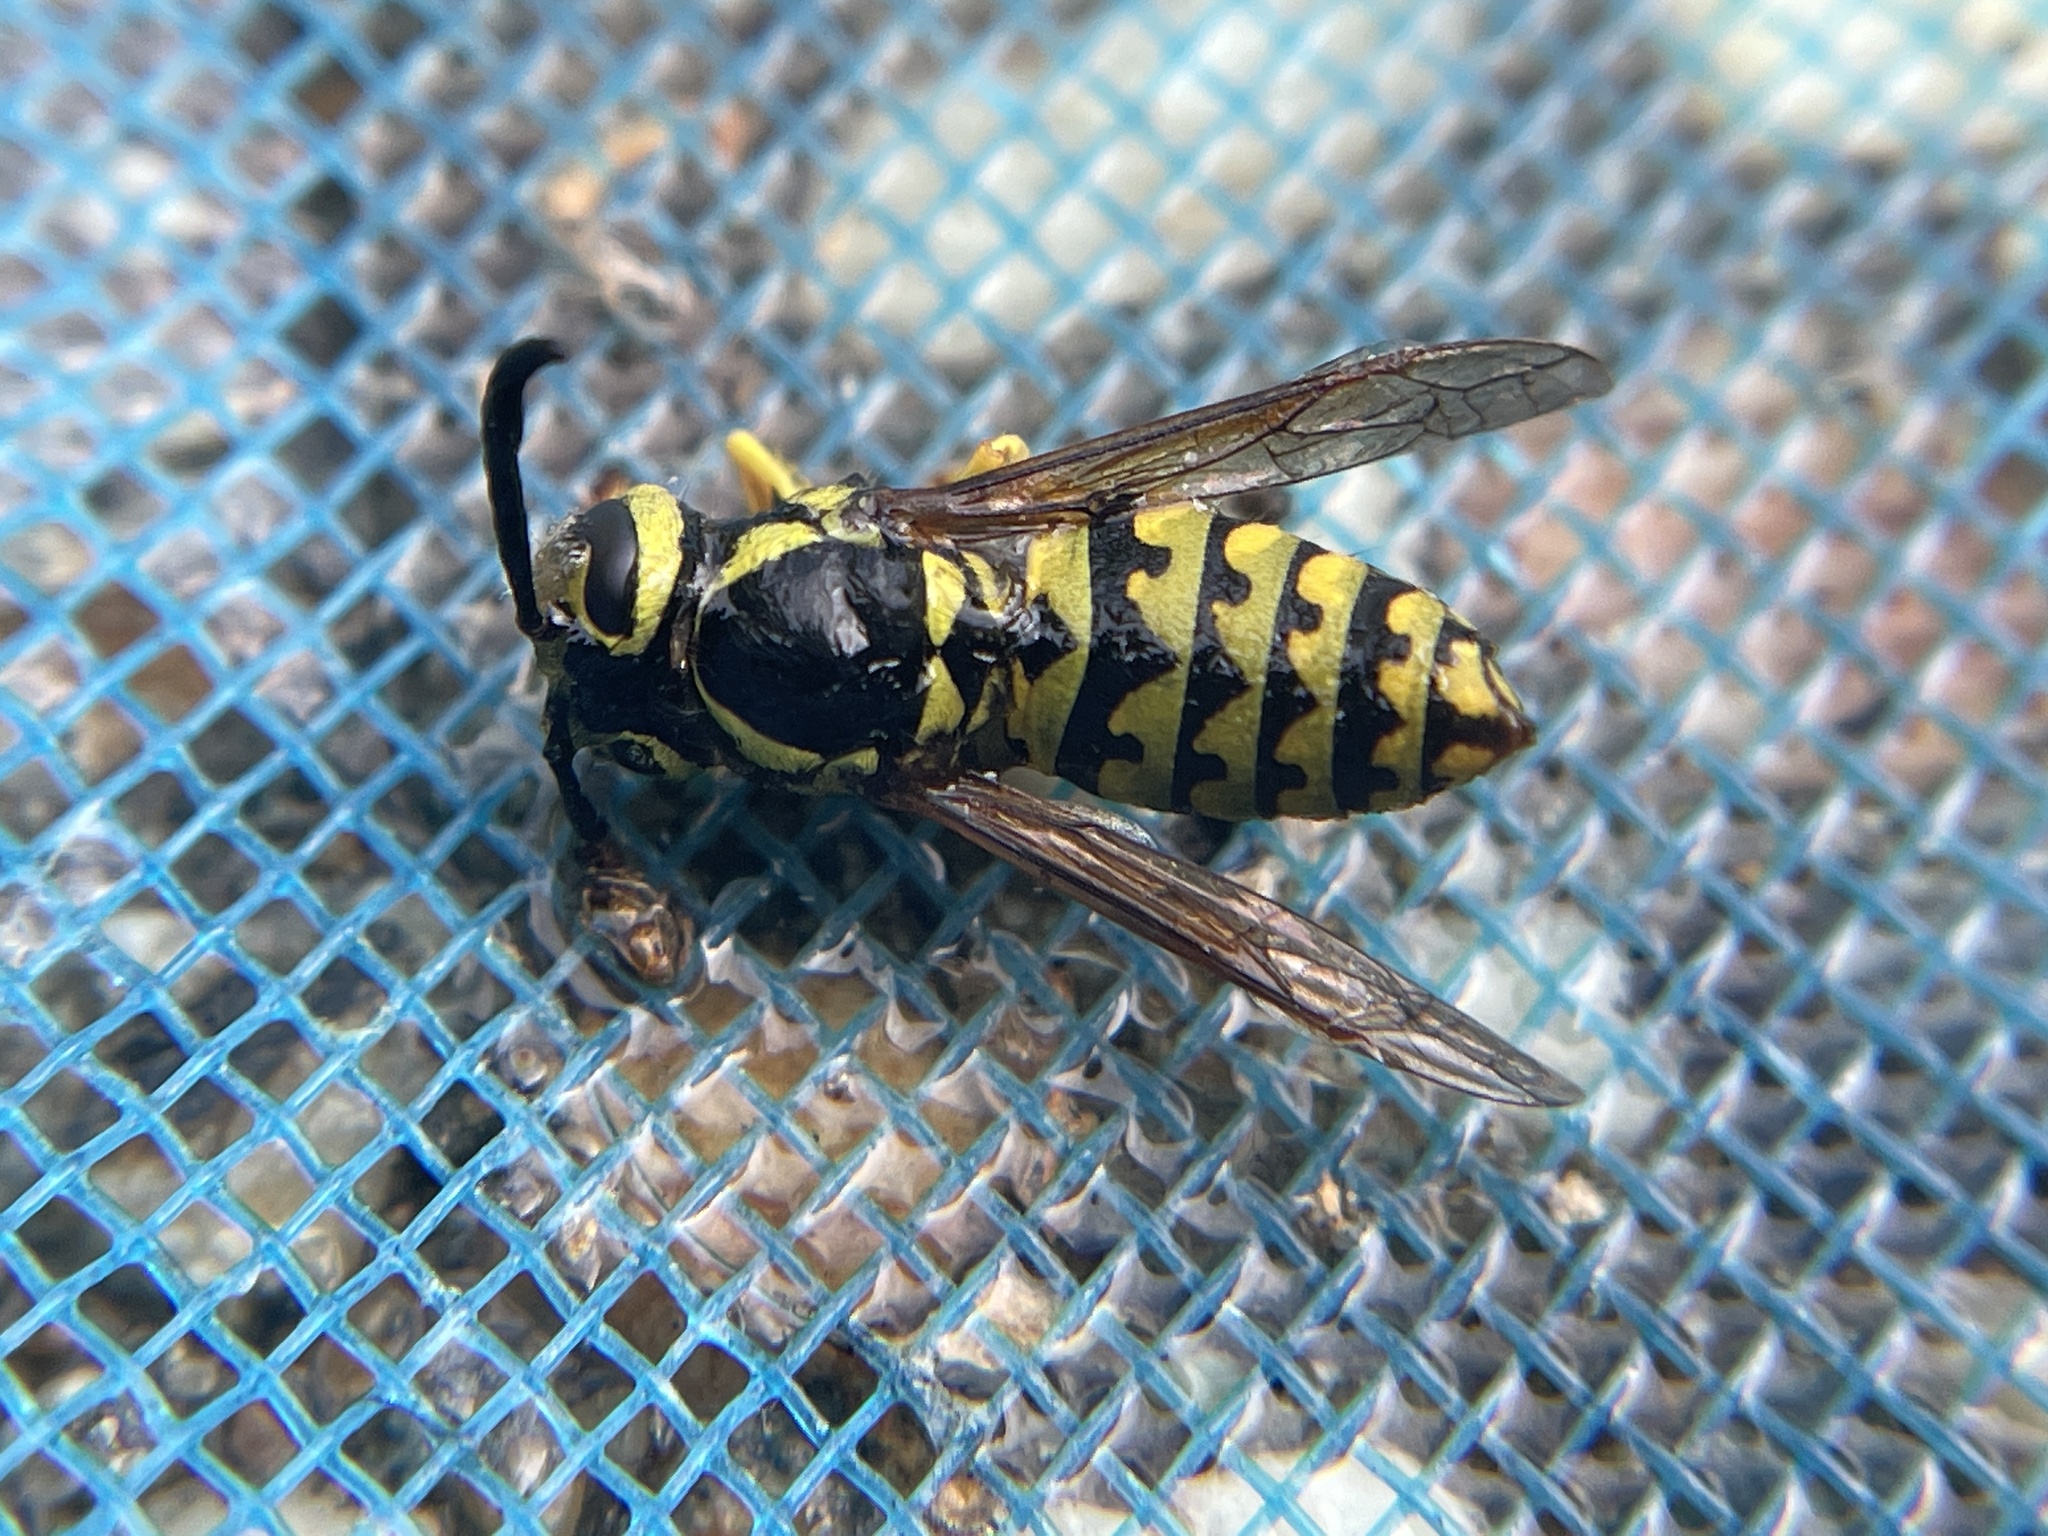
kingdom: Animalia
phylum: Arthropoda
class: Insecta
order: Hymenoptera
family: Vespidae
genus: Vespula
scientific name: Vespula pensylvanica
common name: Western yellowjacket
